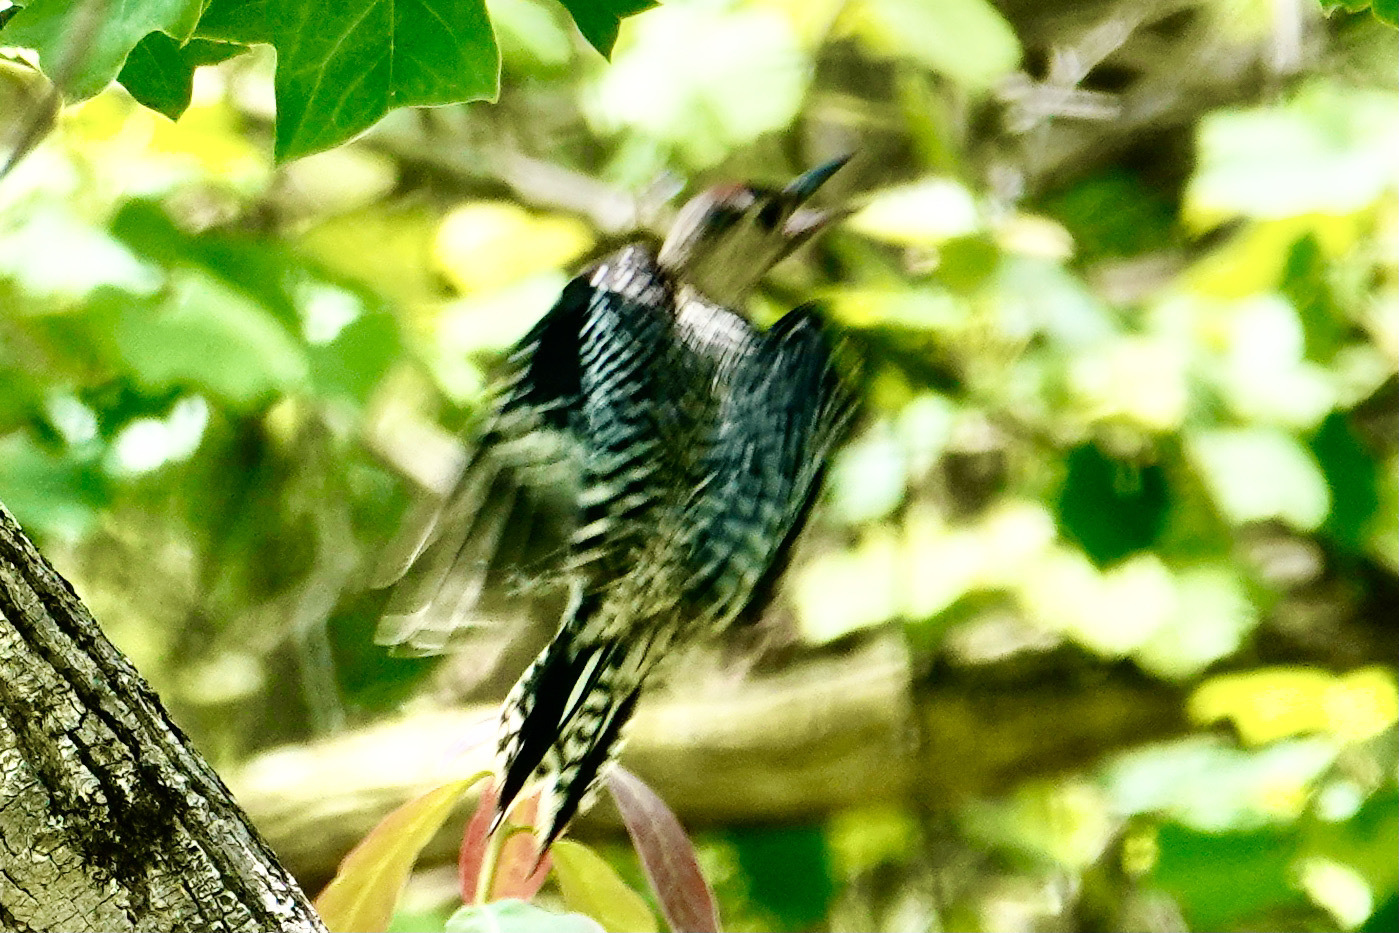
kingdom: Animalia
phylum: Chordata
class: Aves
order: Piciformes
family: Picidae
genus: Melanerpes
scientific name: Melanerpes carolinus
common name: Red-bellied woodpecker
